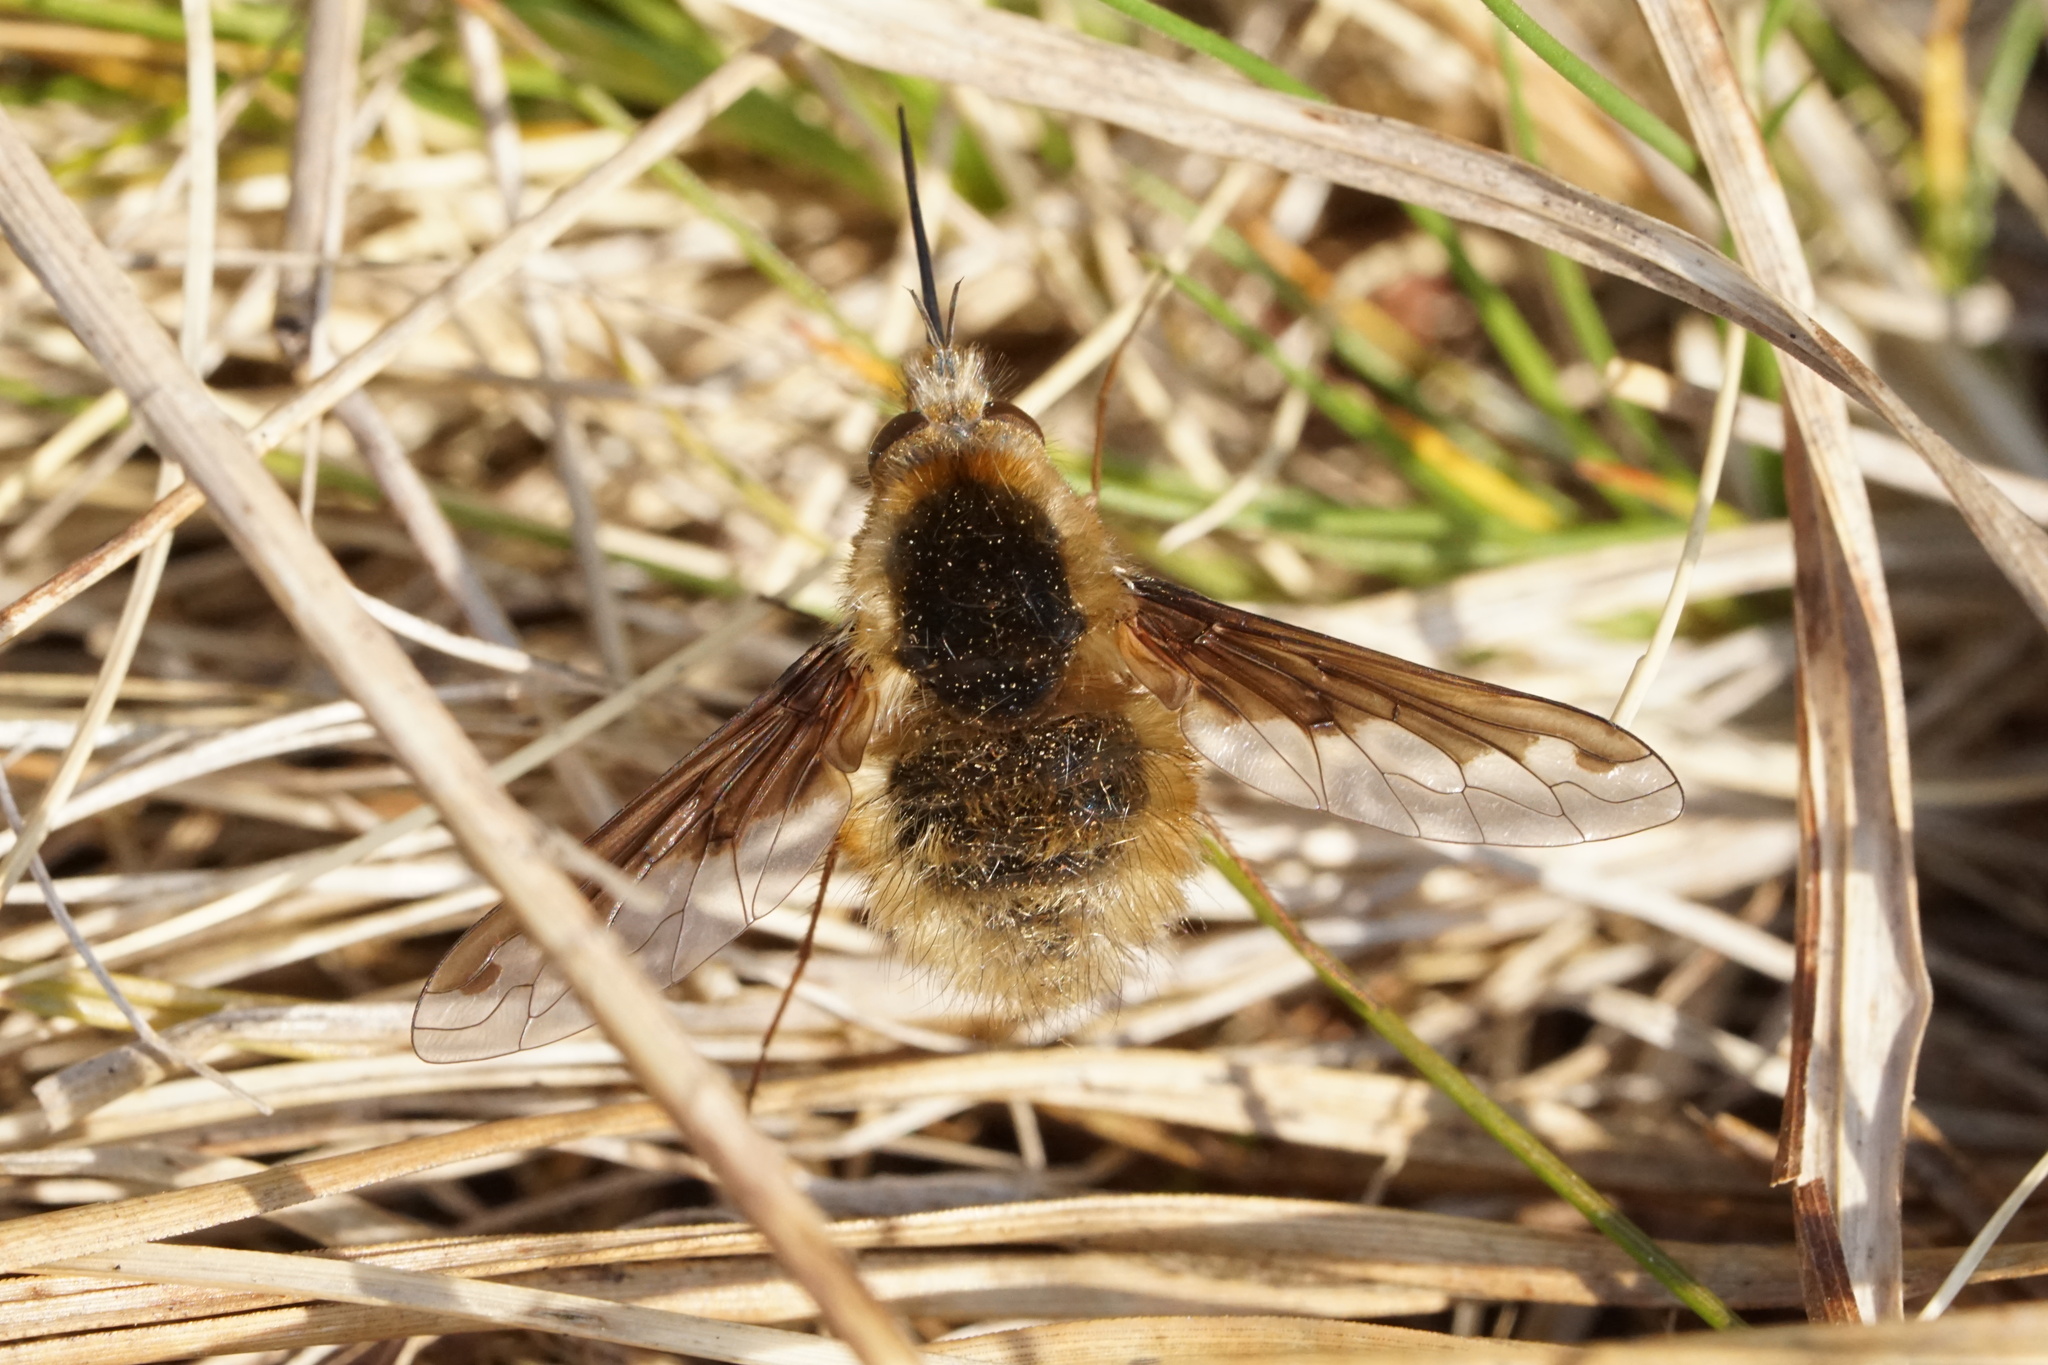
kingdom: Animalia
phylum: Arthropoda
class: Insecta
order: Diptera
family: Bombyliidae
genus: Bombylius
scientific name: Bombylius major
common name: Bee fly
